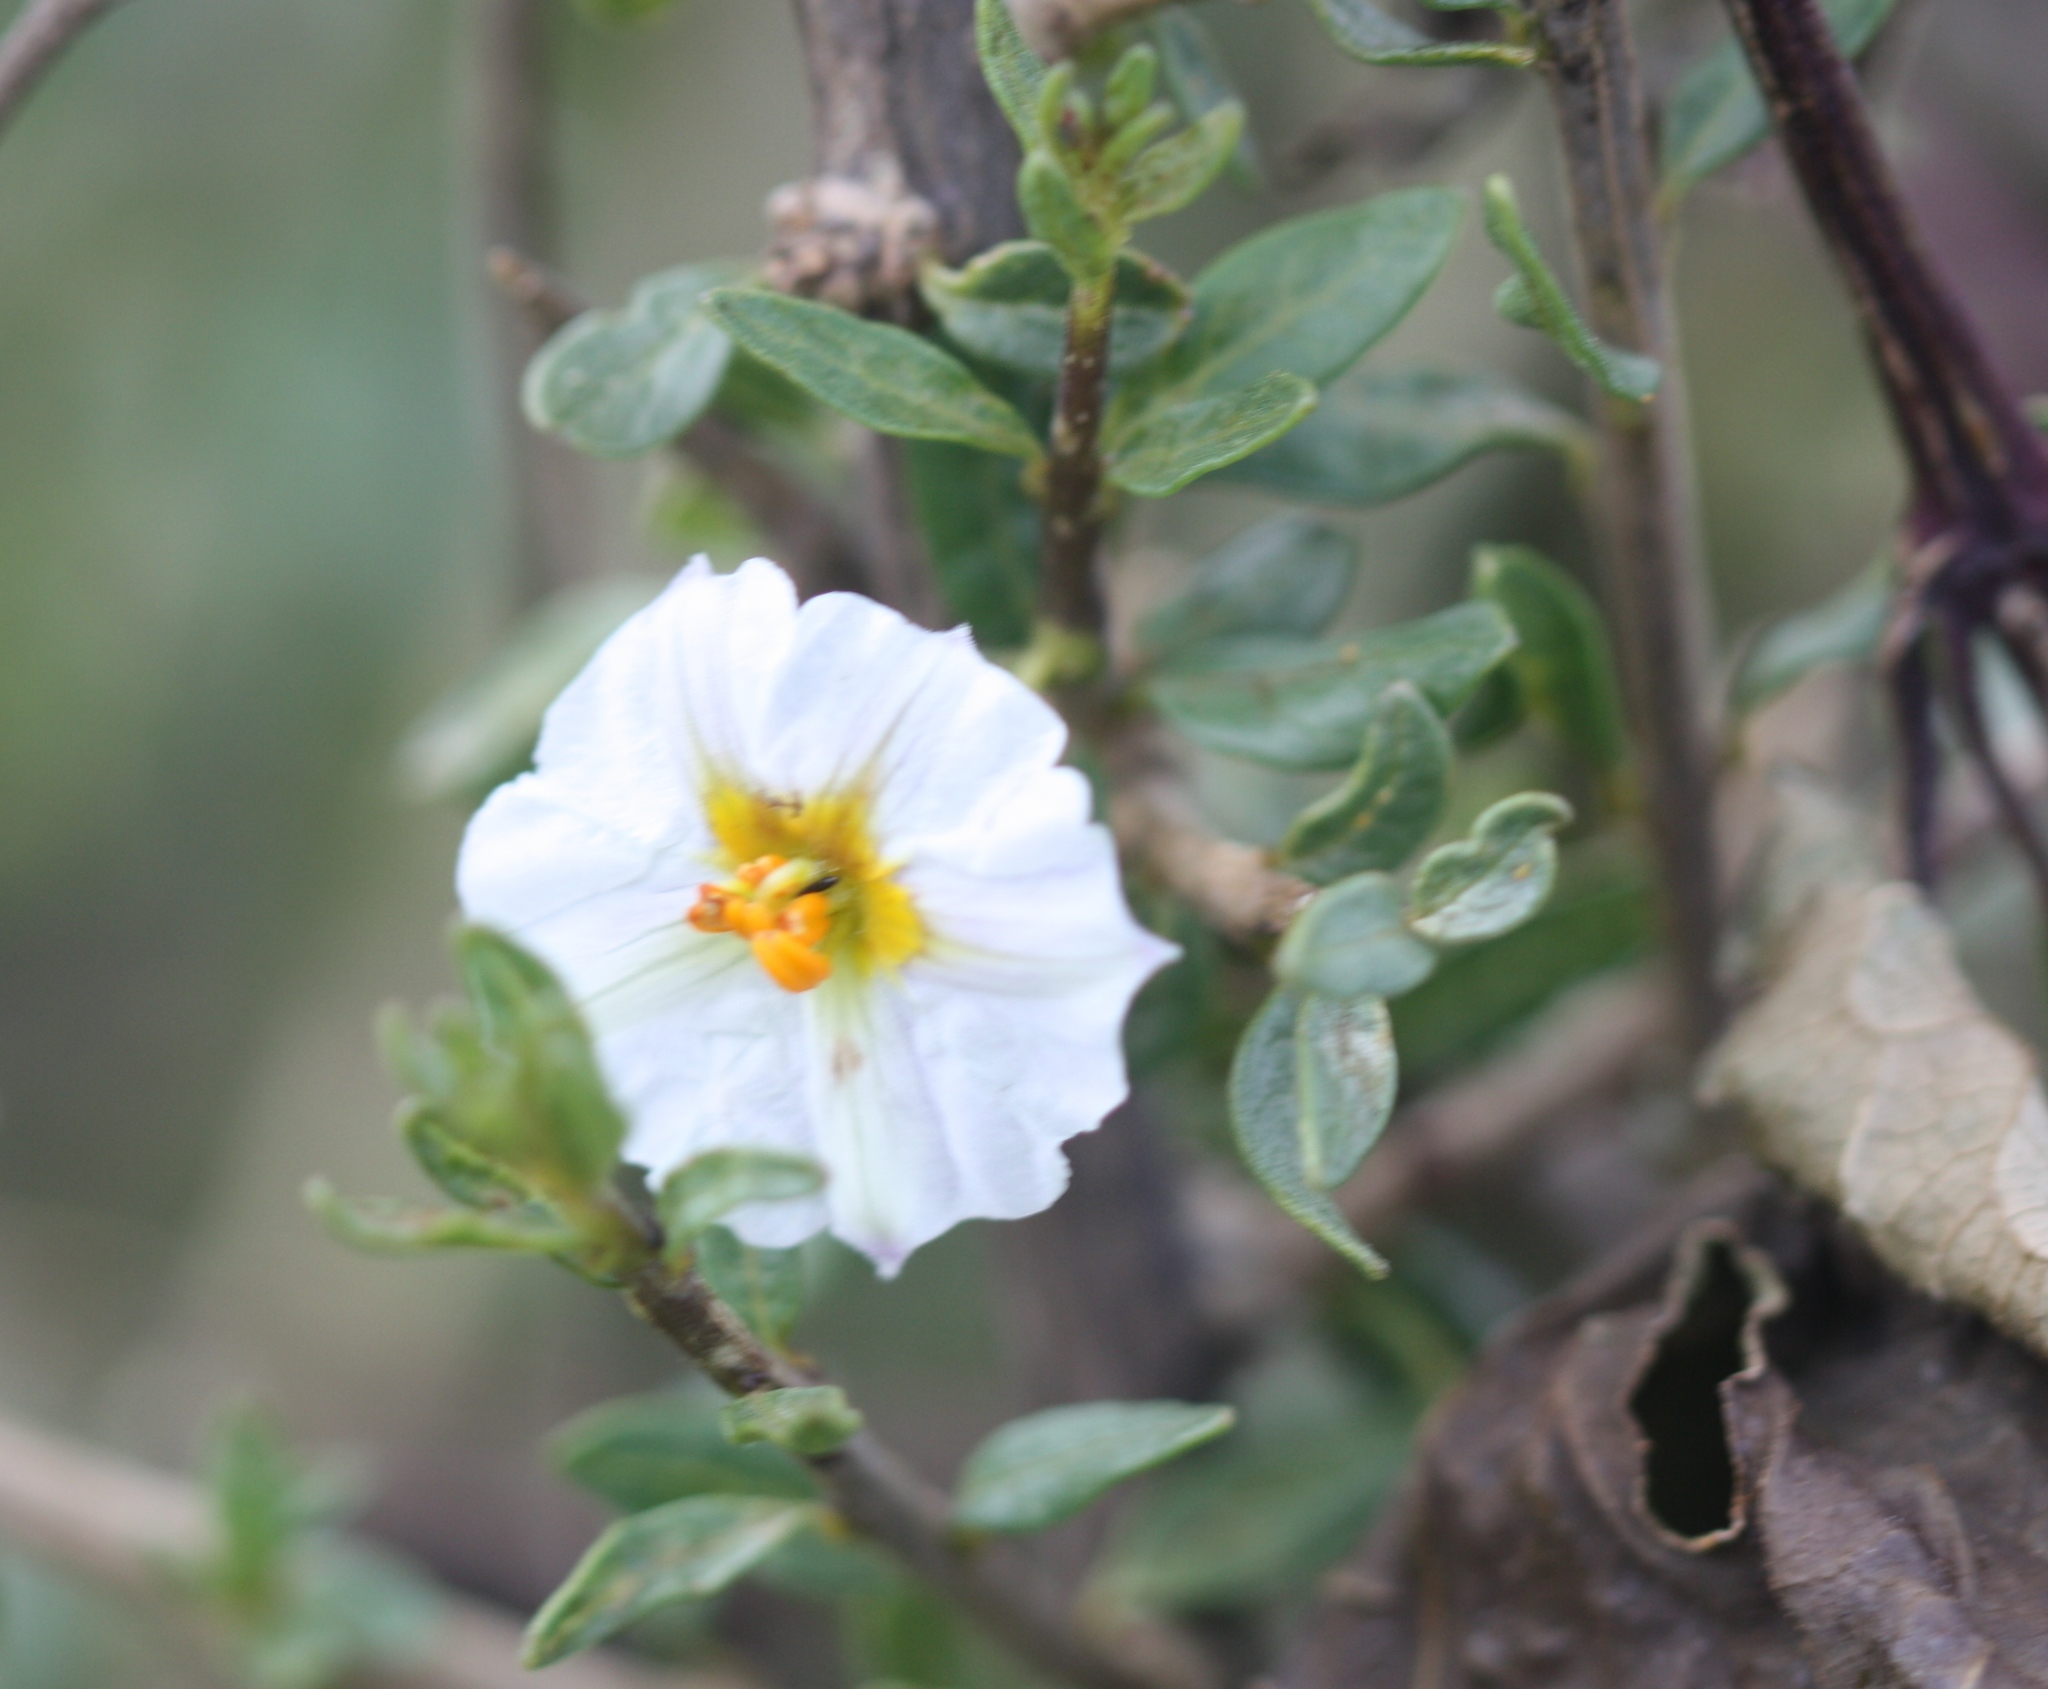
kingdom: Plantae
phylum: Tracheophyta
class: Magnoliopsida
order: Solanales
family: Solanaceae
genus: Lycianthes
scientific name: Lycianthes lycioides
